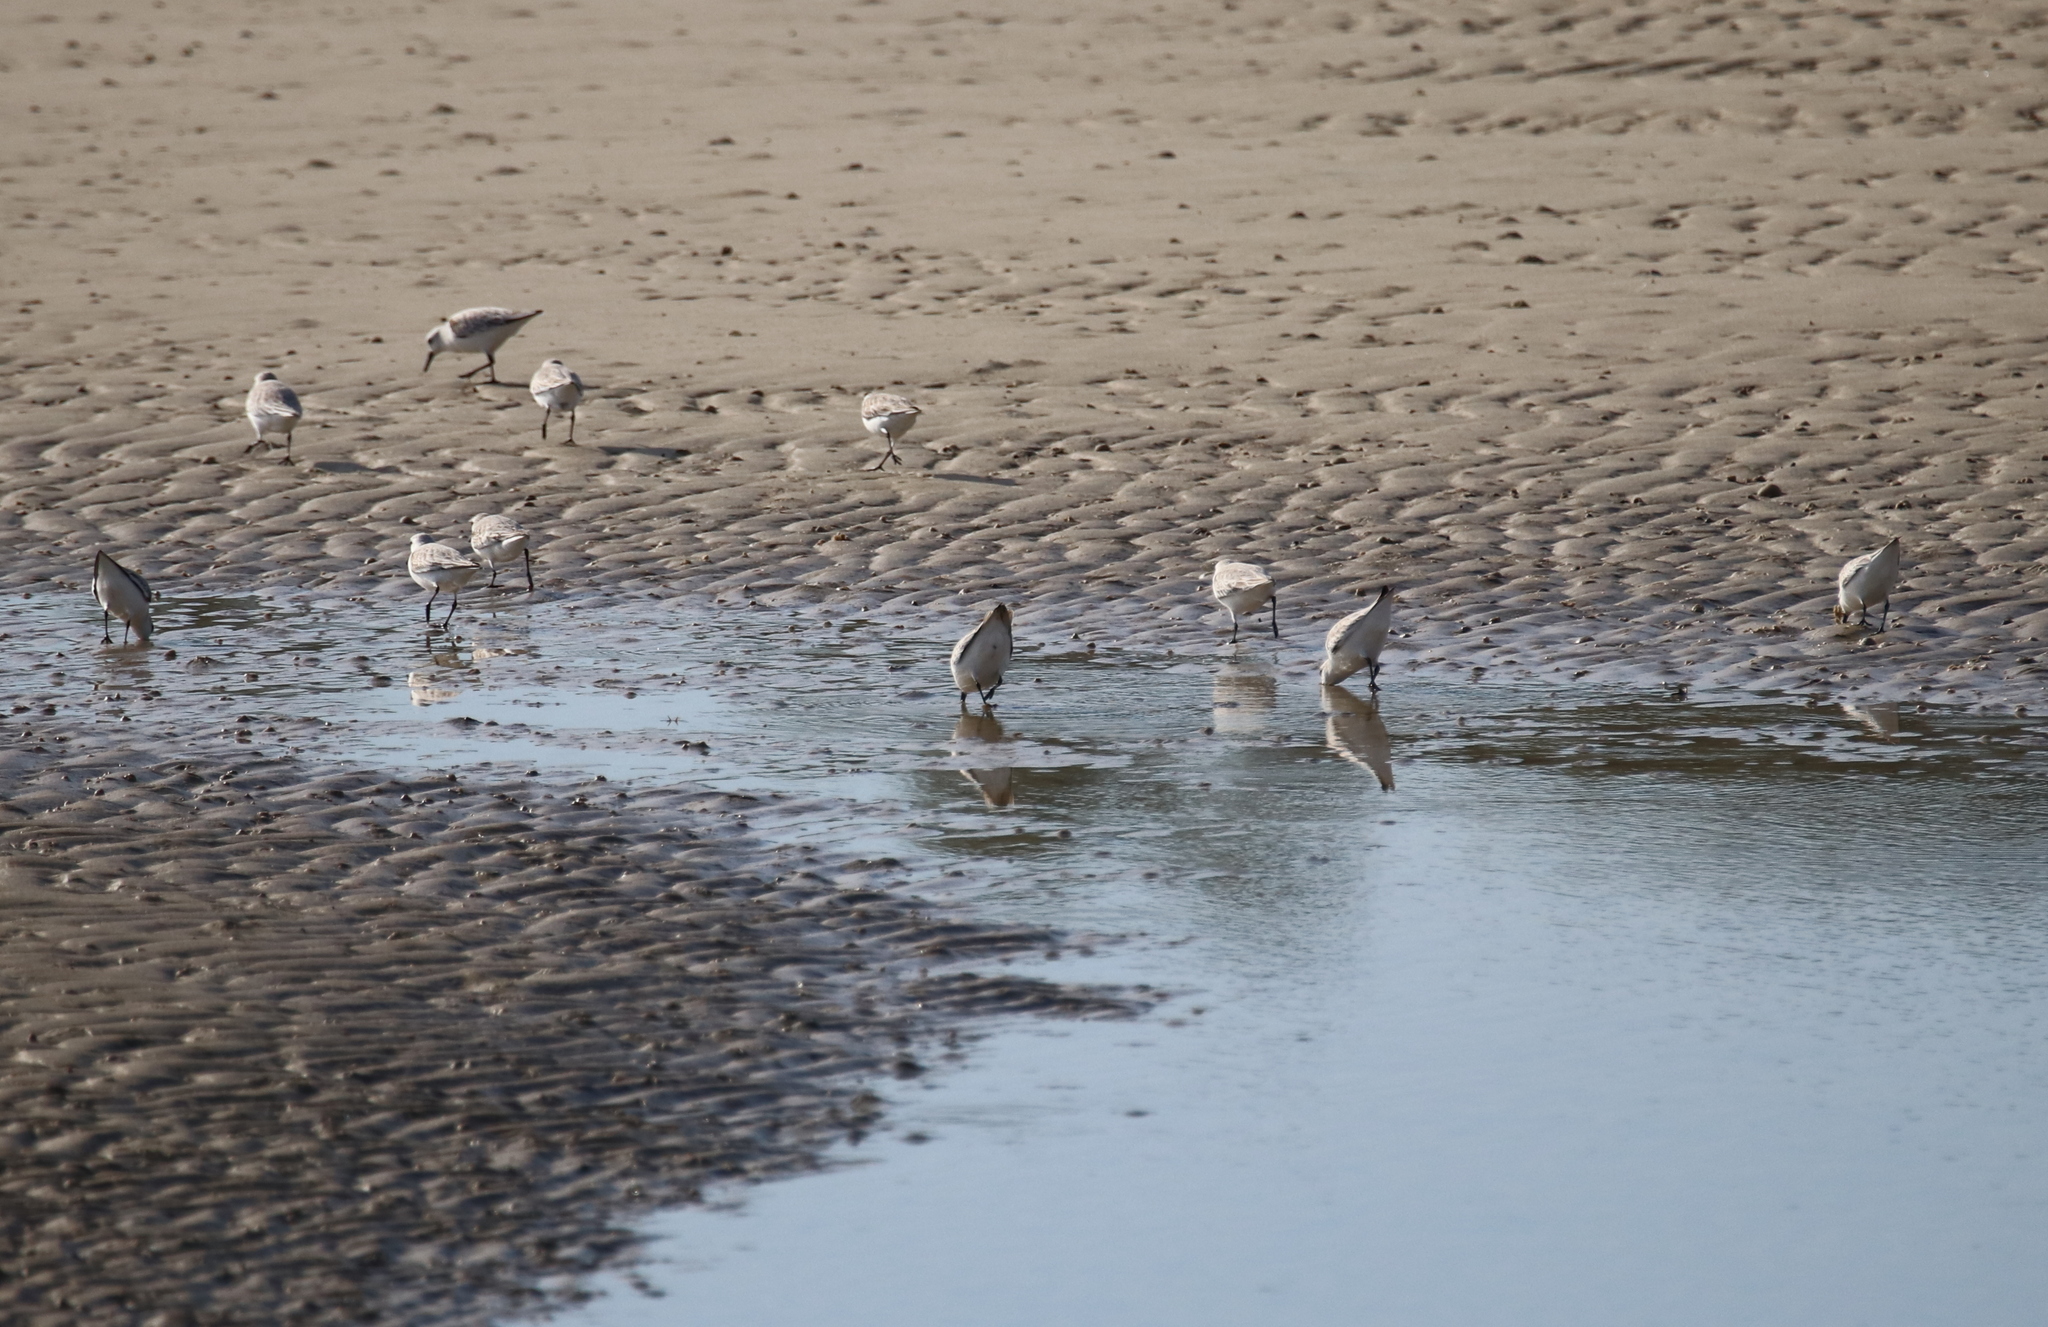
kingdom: Animalia
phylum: Chordata
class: Aves
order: Charadriiformes
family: Scolopacidae
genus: Calidris
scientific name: Calidris alba
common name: Sanderling
